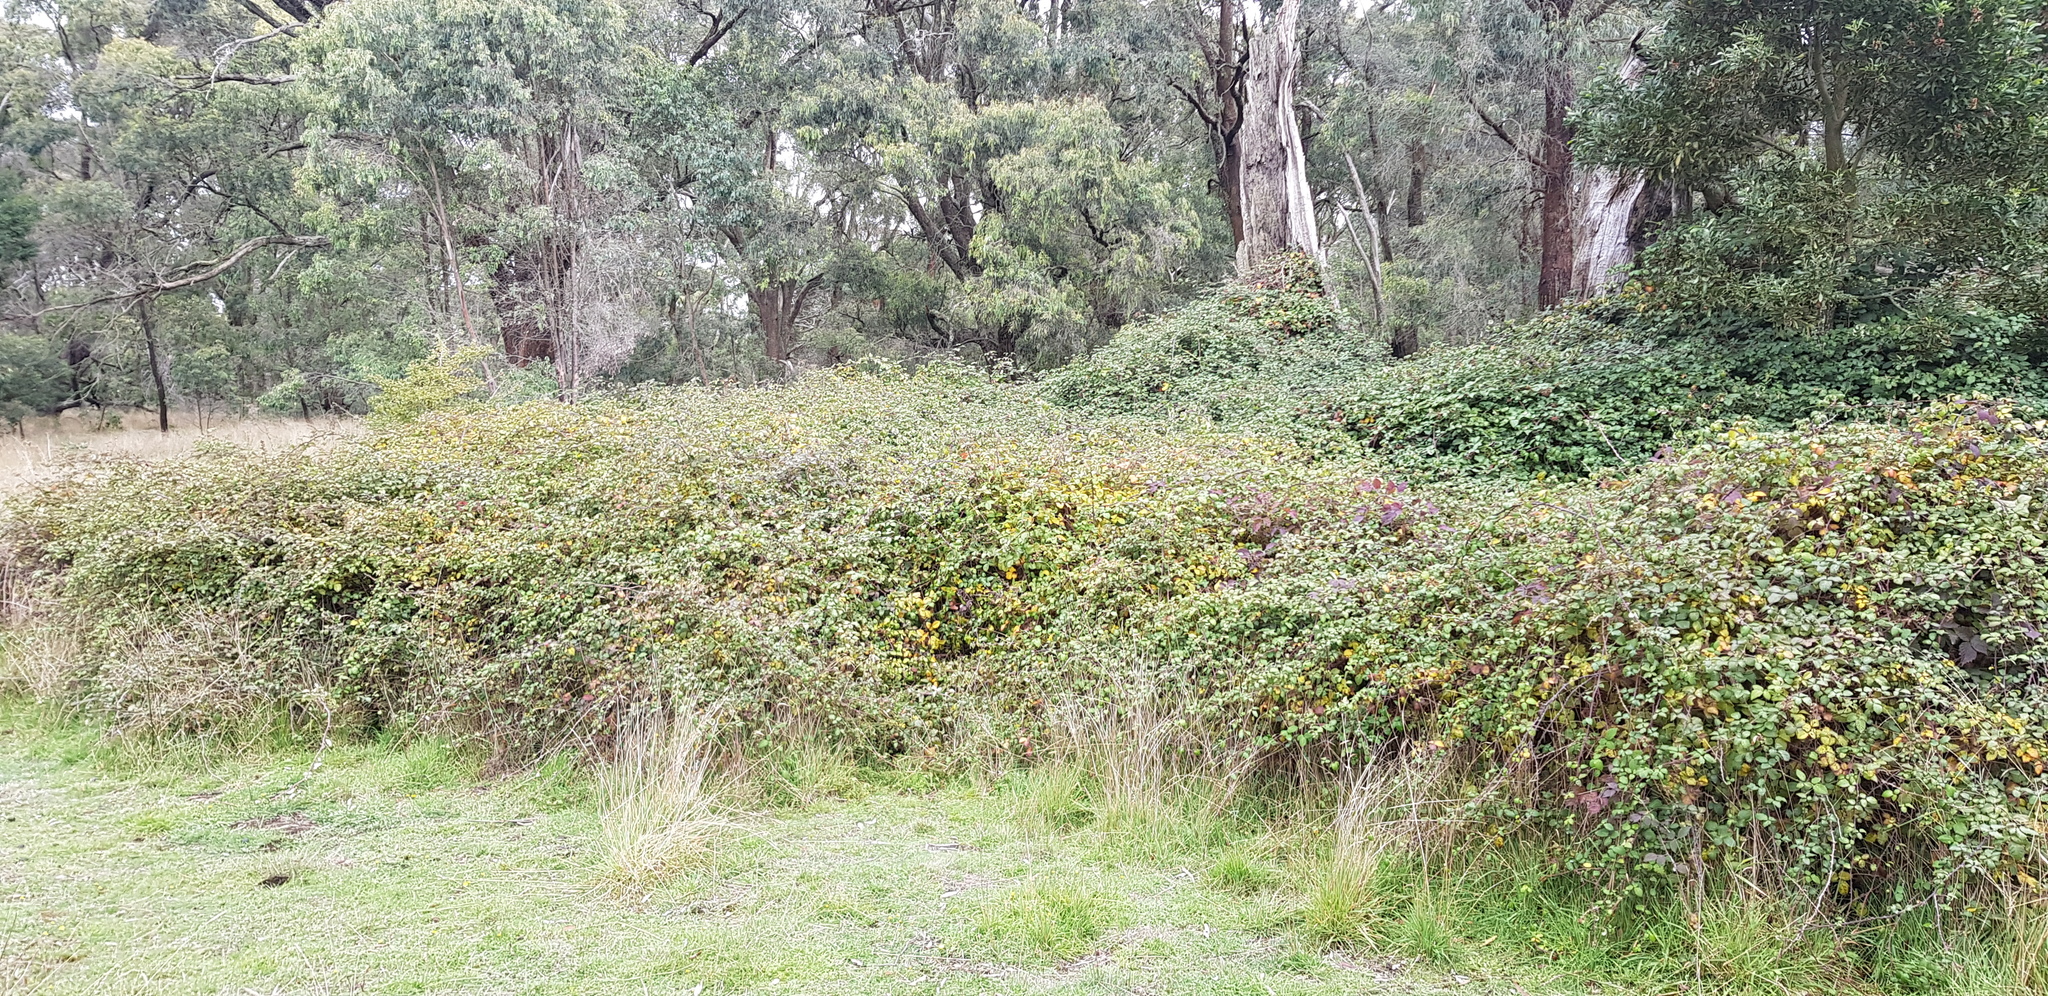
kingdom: Plantae
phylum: Tracheophyta
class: Magnoliopsida
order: Rosales
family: Rosaceae
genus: Rubus
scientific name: Rubus
